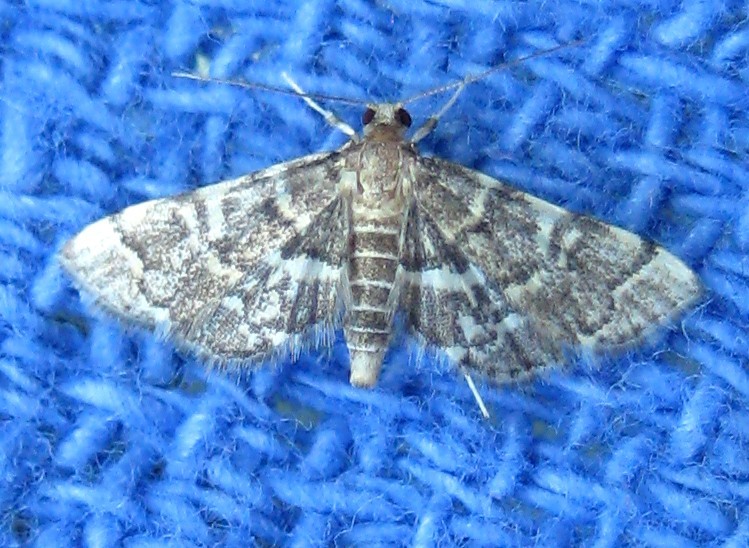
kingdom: Animalia
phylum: Arthropoda
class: Insecta
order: Lepidoptera
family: Crambidae
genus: Anageshna
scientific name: Anageshna primordialis
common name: Yellow-spotted webworm moth
